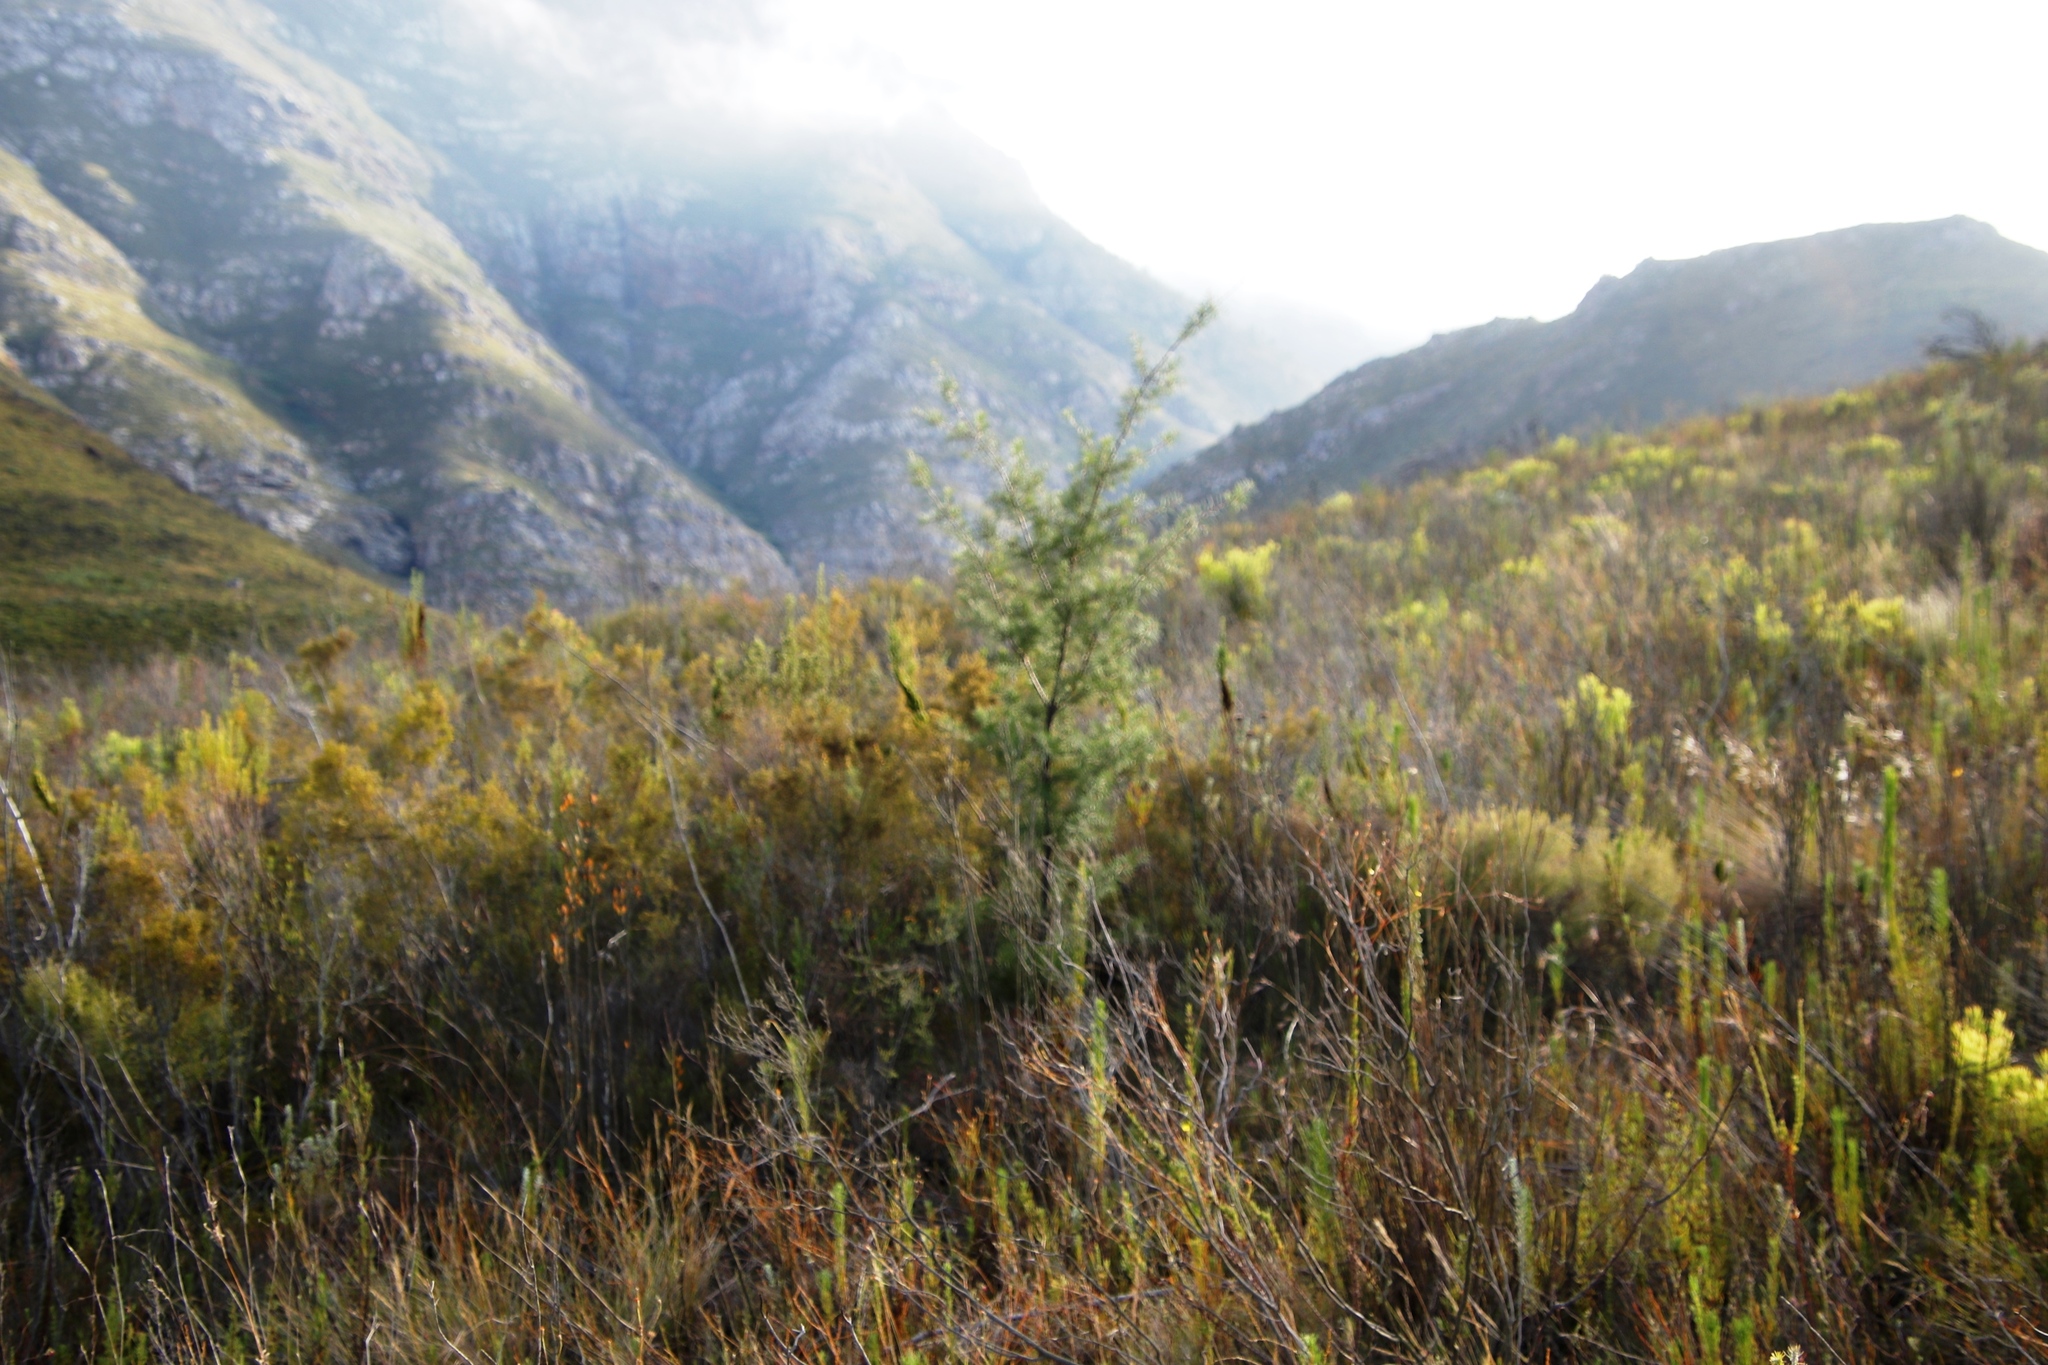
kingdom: Plantae
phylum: Tracheophyta
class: Magnoliopsida
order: Proteales
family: Proteaceae
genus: Hakea
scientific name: Hakea sericea
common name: Needle bush
